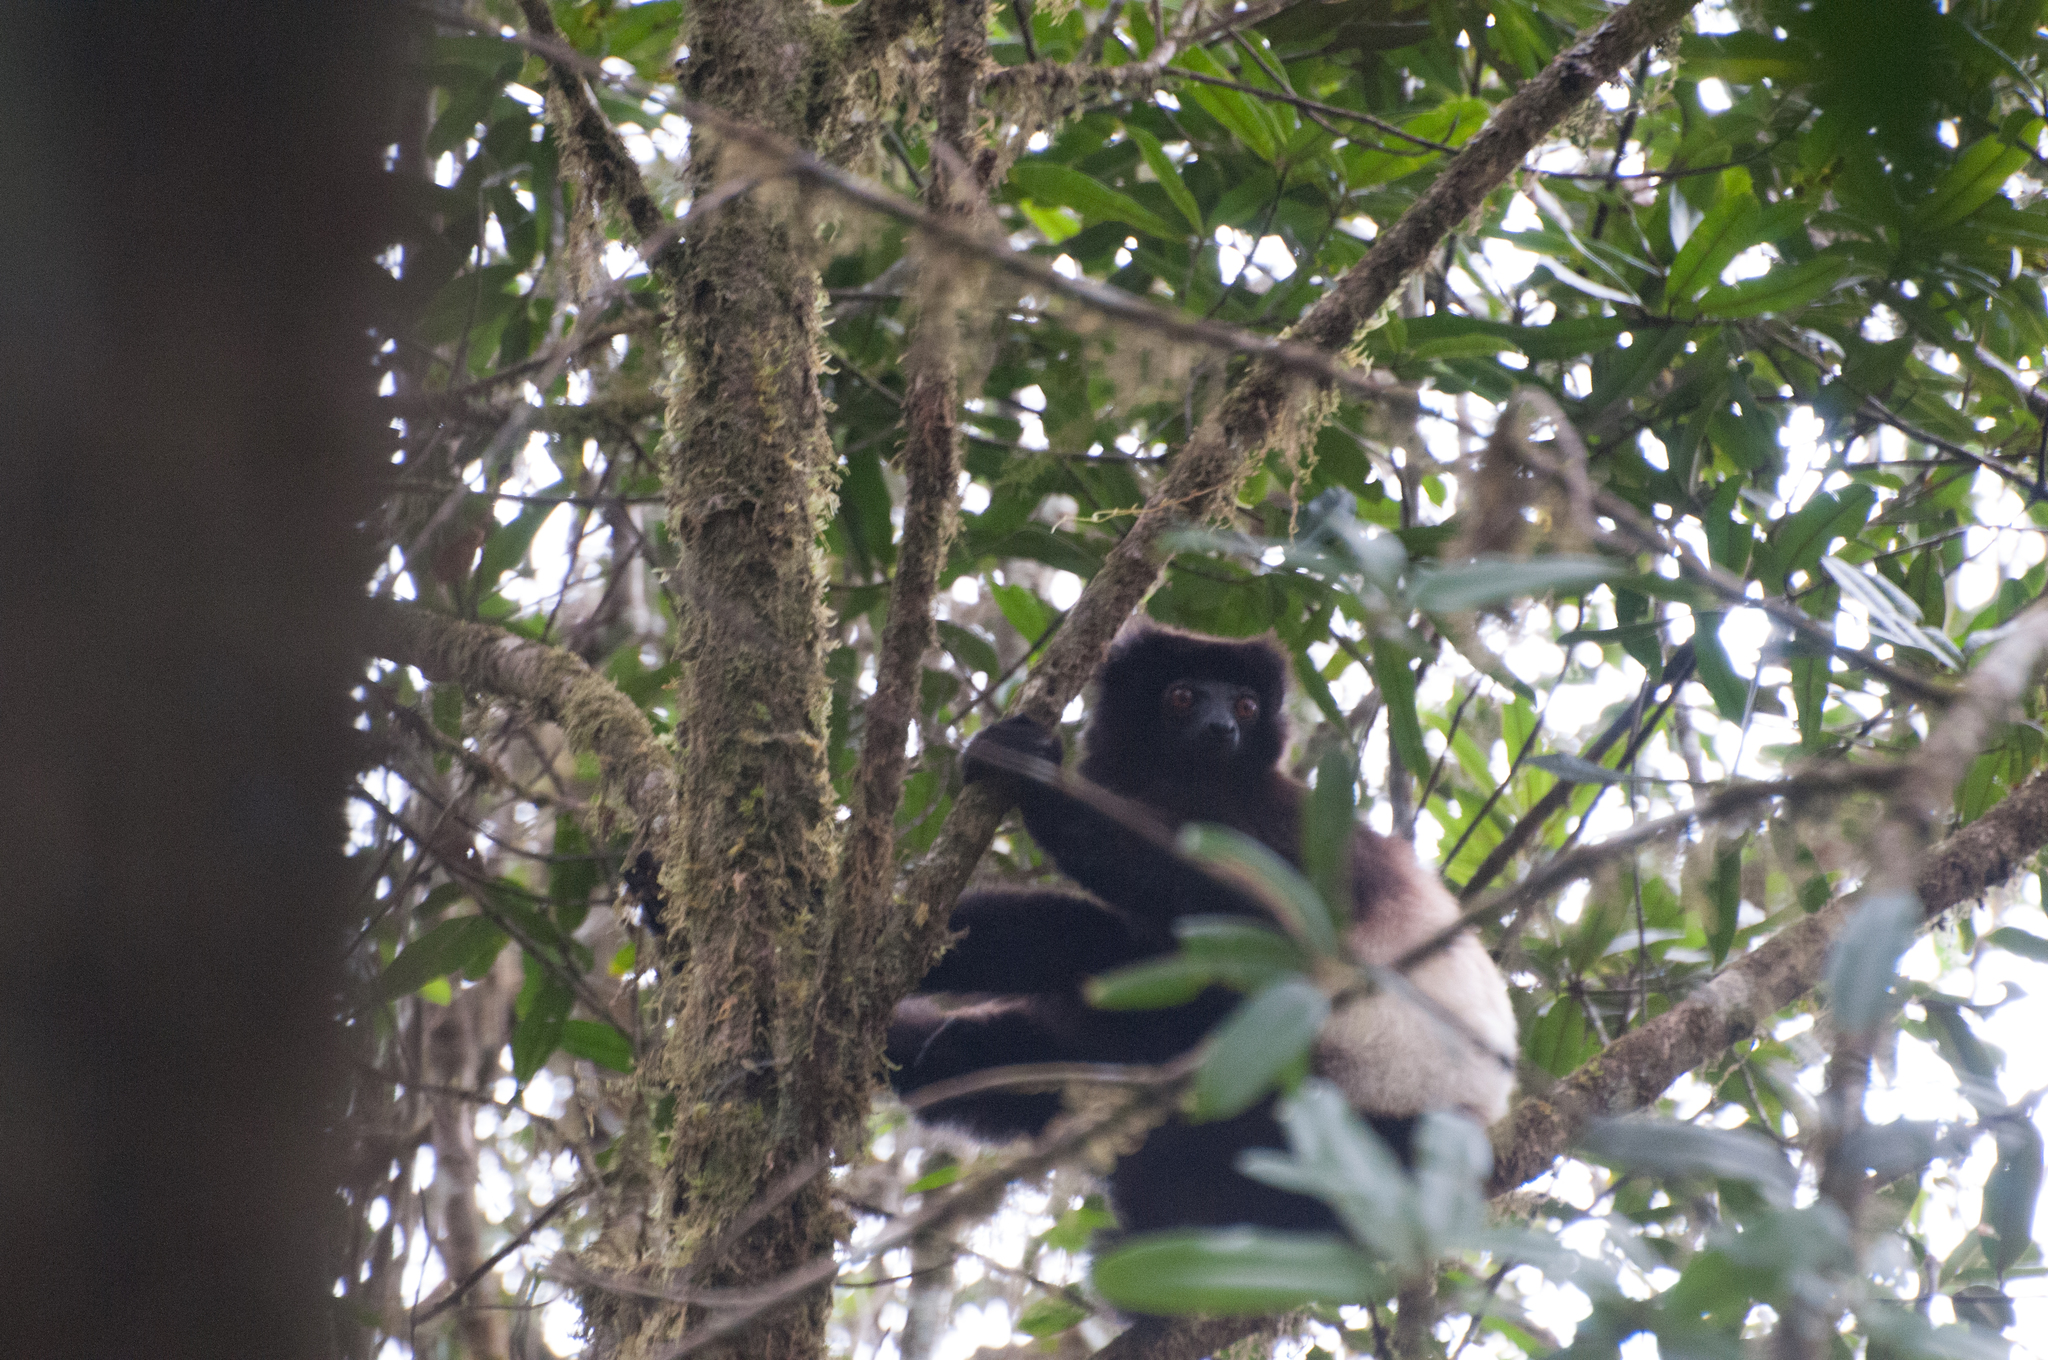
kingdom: Animalia
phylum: Chordata
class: Mammalia
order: Primates
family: Indriidae
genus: Propithecus
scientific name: Propithecus edwardsi
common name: Milne-edwards’s simpona
